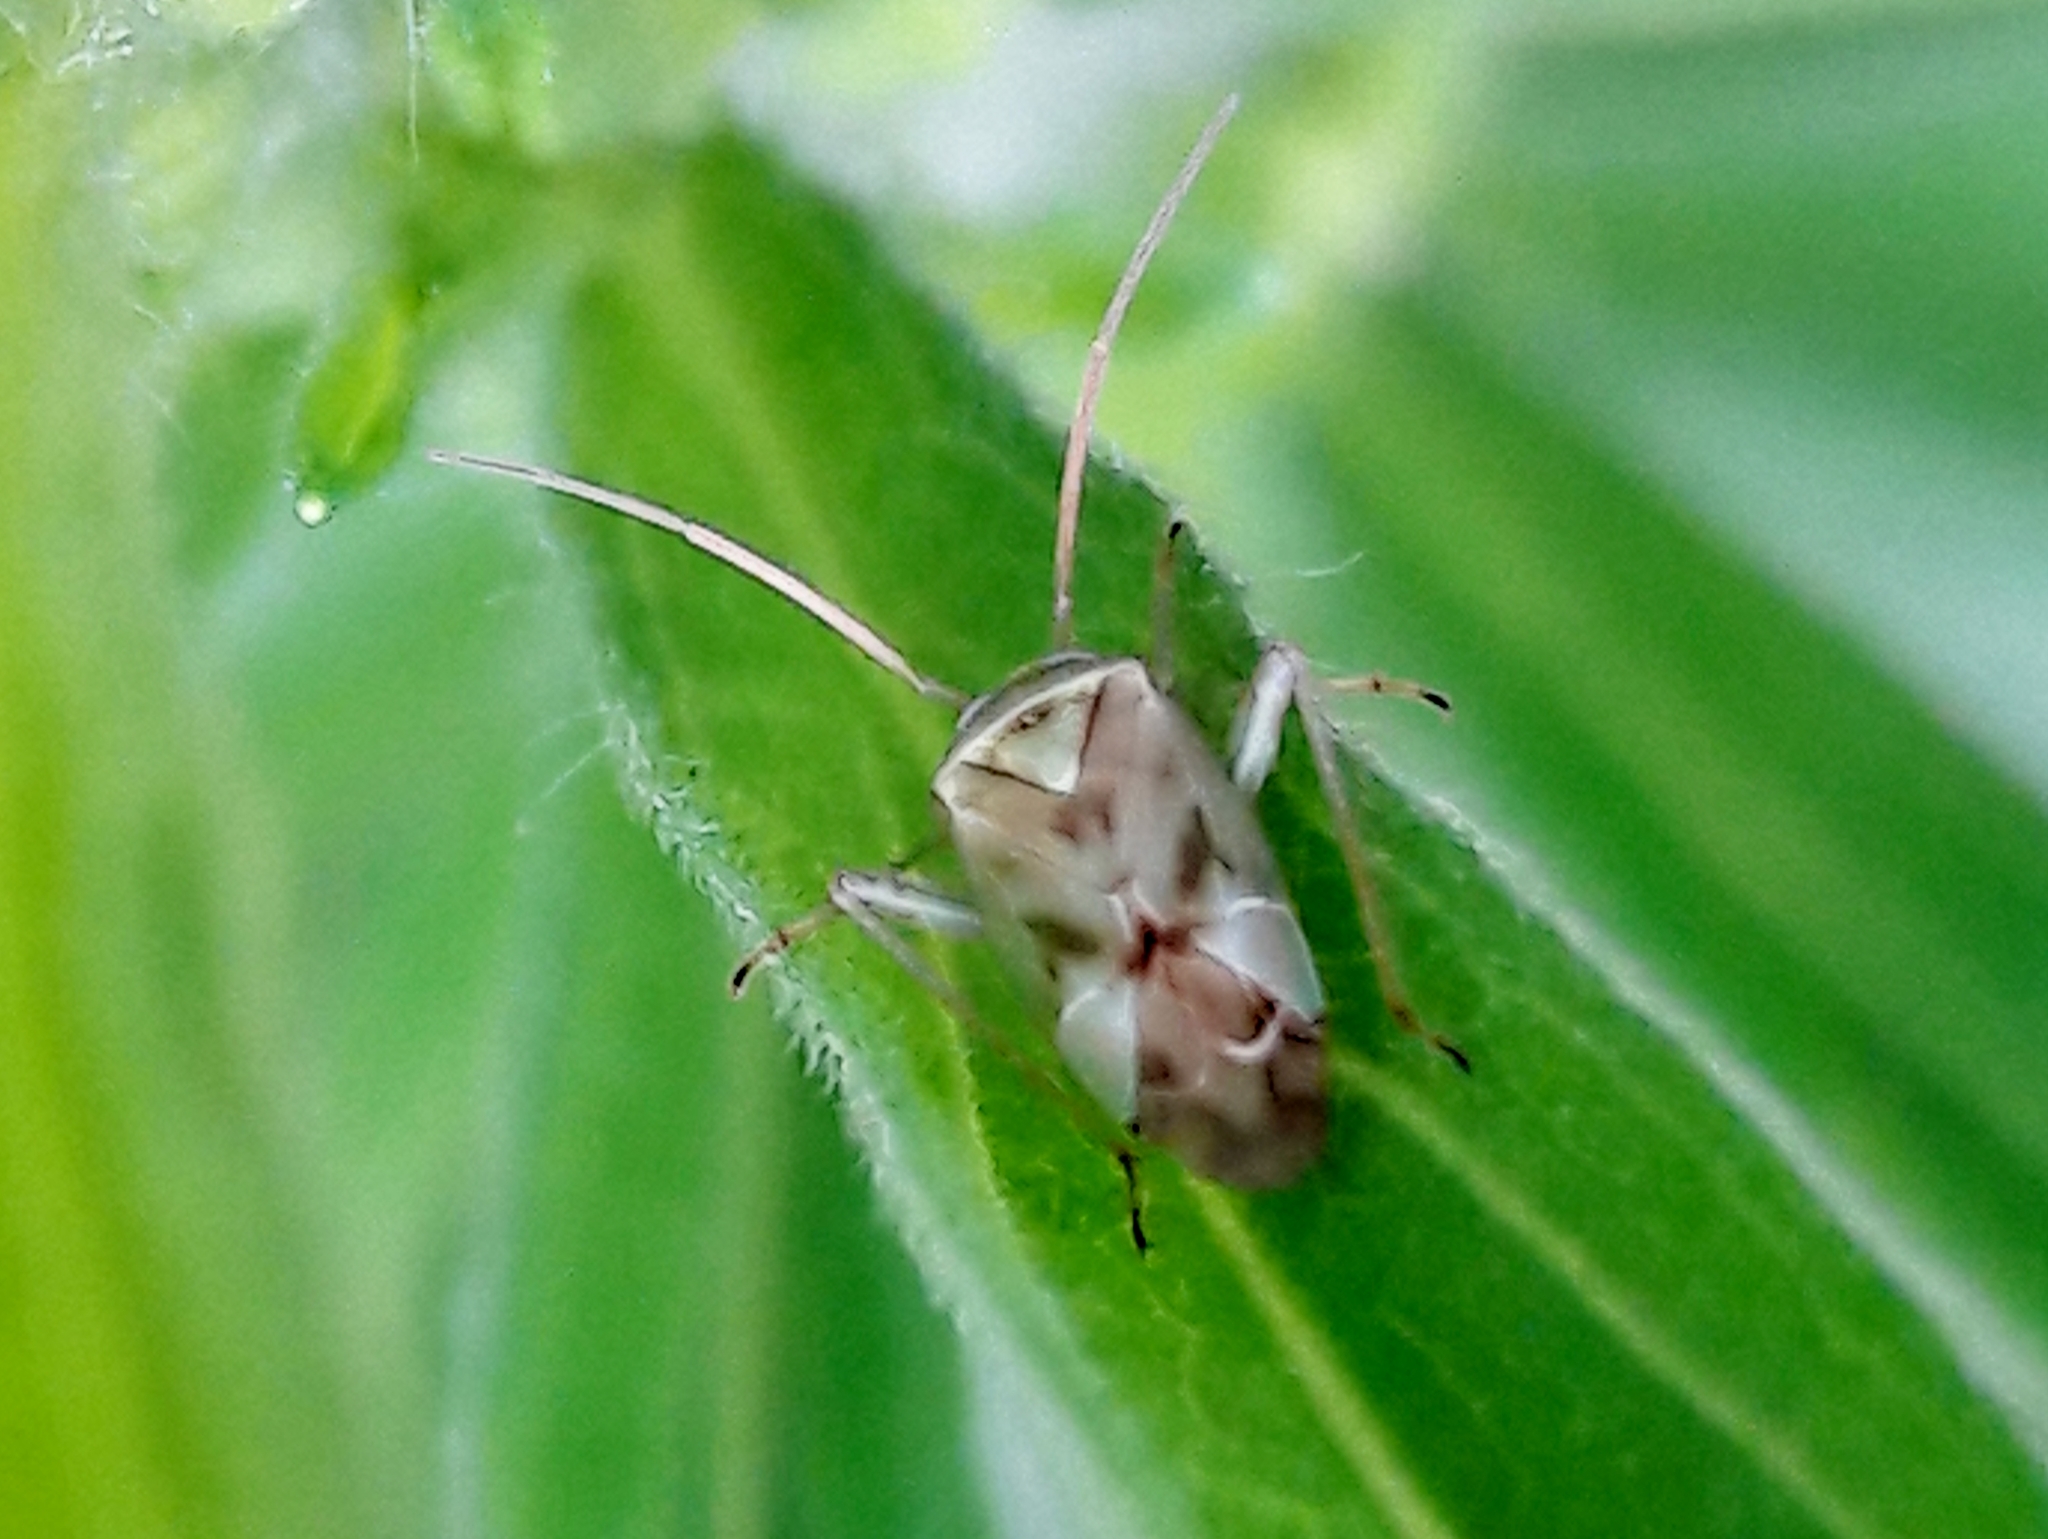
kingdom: Animalia
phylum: Arthropoda
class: Insecta
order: Hemiptera
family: Miridae
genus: Taylorilygus
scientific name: Taylorilygus apicalis
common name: Plant bug
